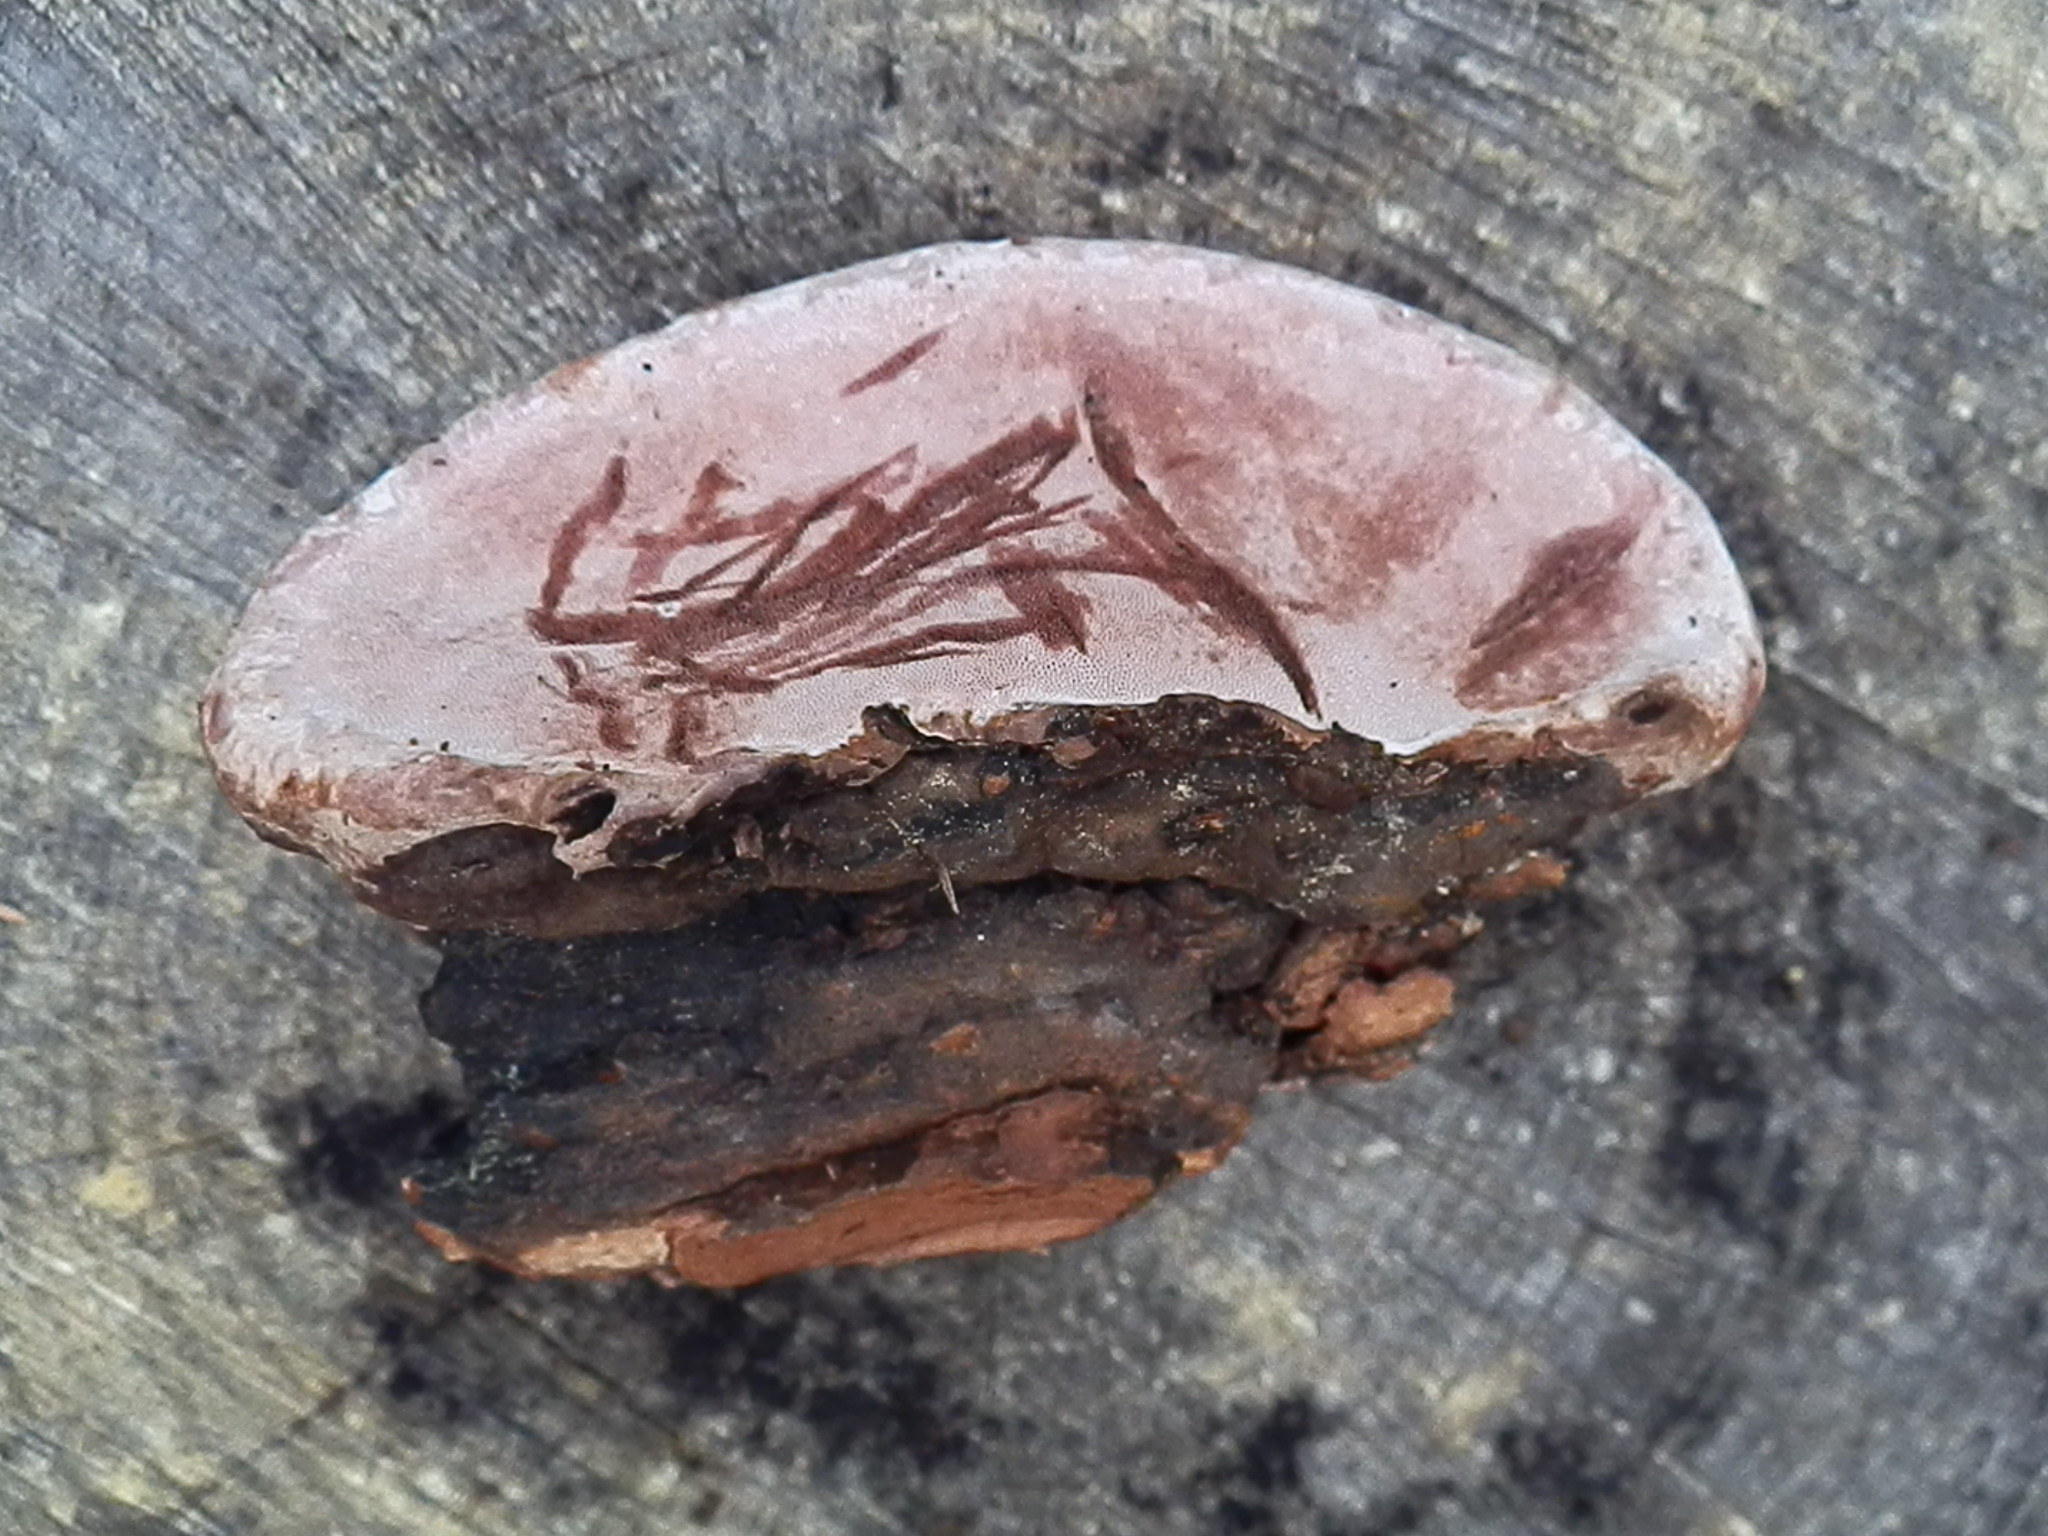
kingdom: Fungi
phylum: Basidiomycota
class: Agaricomycetes
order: Polyporales
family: Fomitopsidaceae
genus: Rhodofomes
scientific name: Rhodofomes roseus
